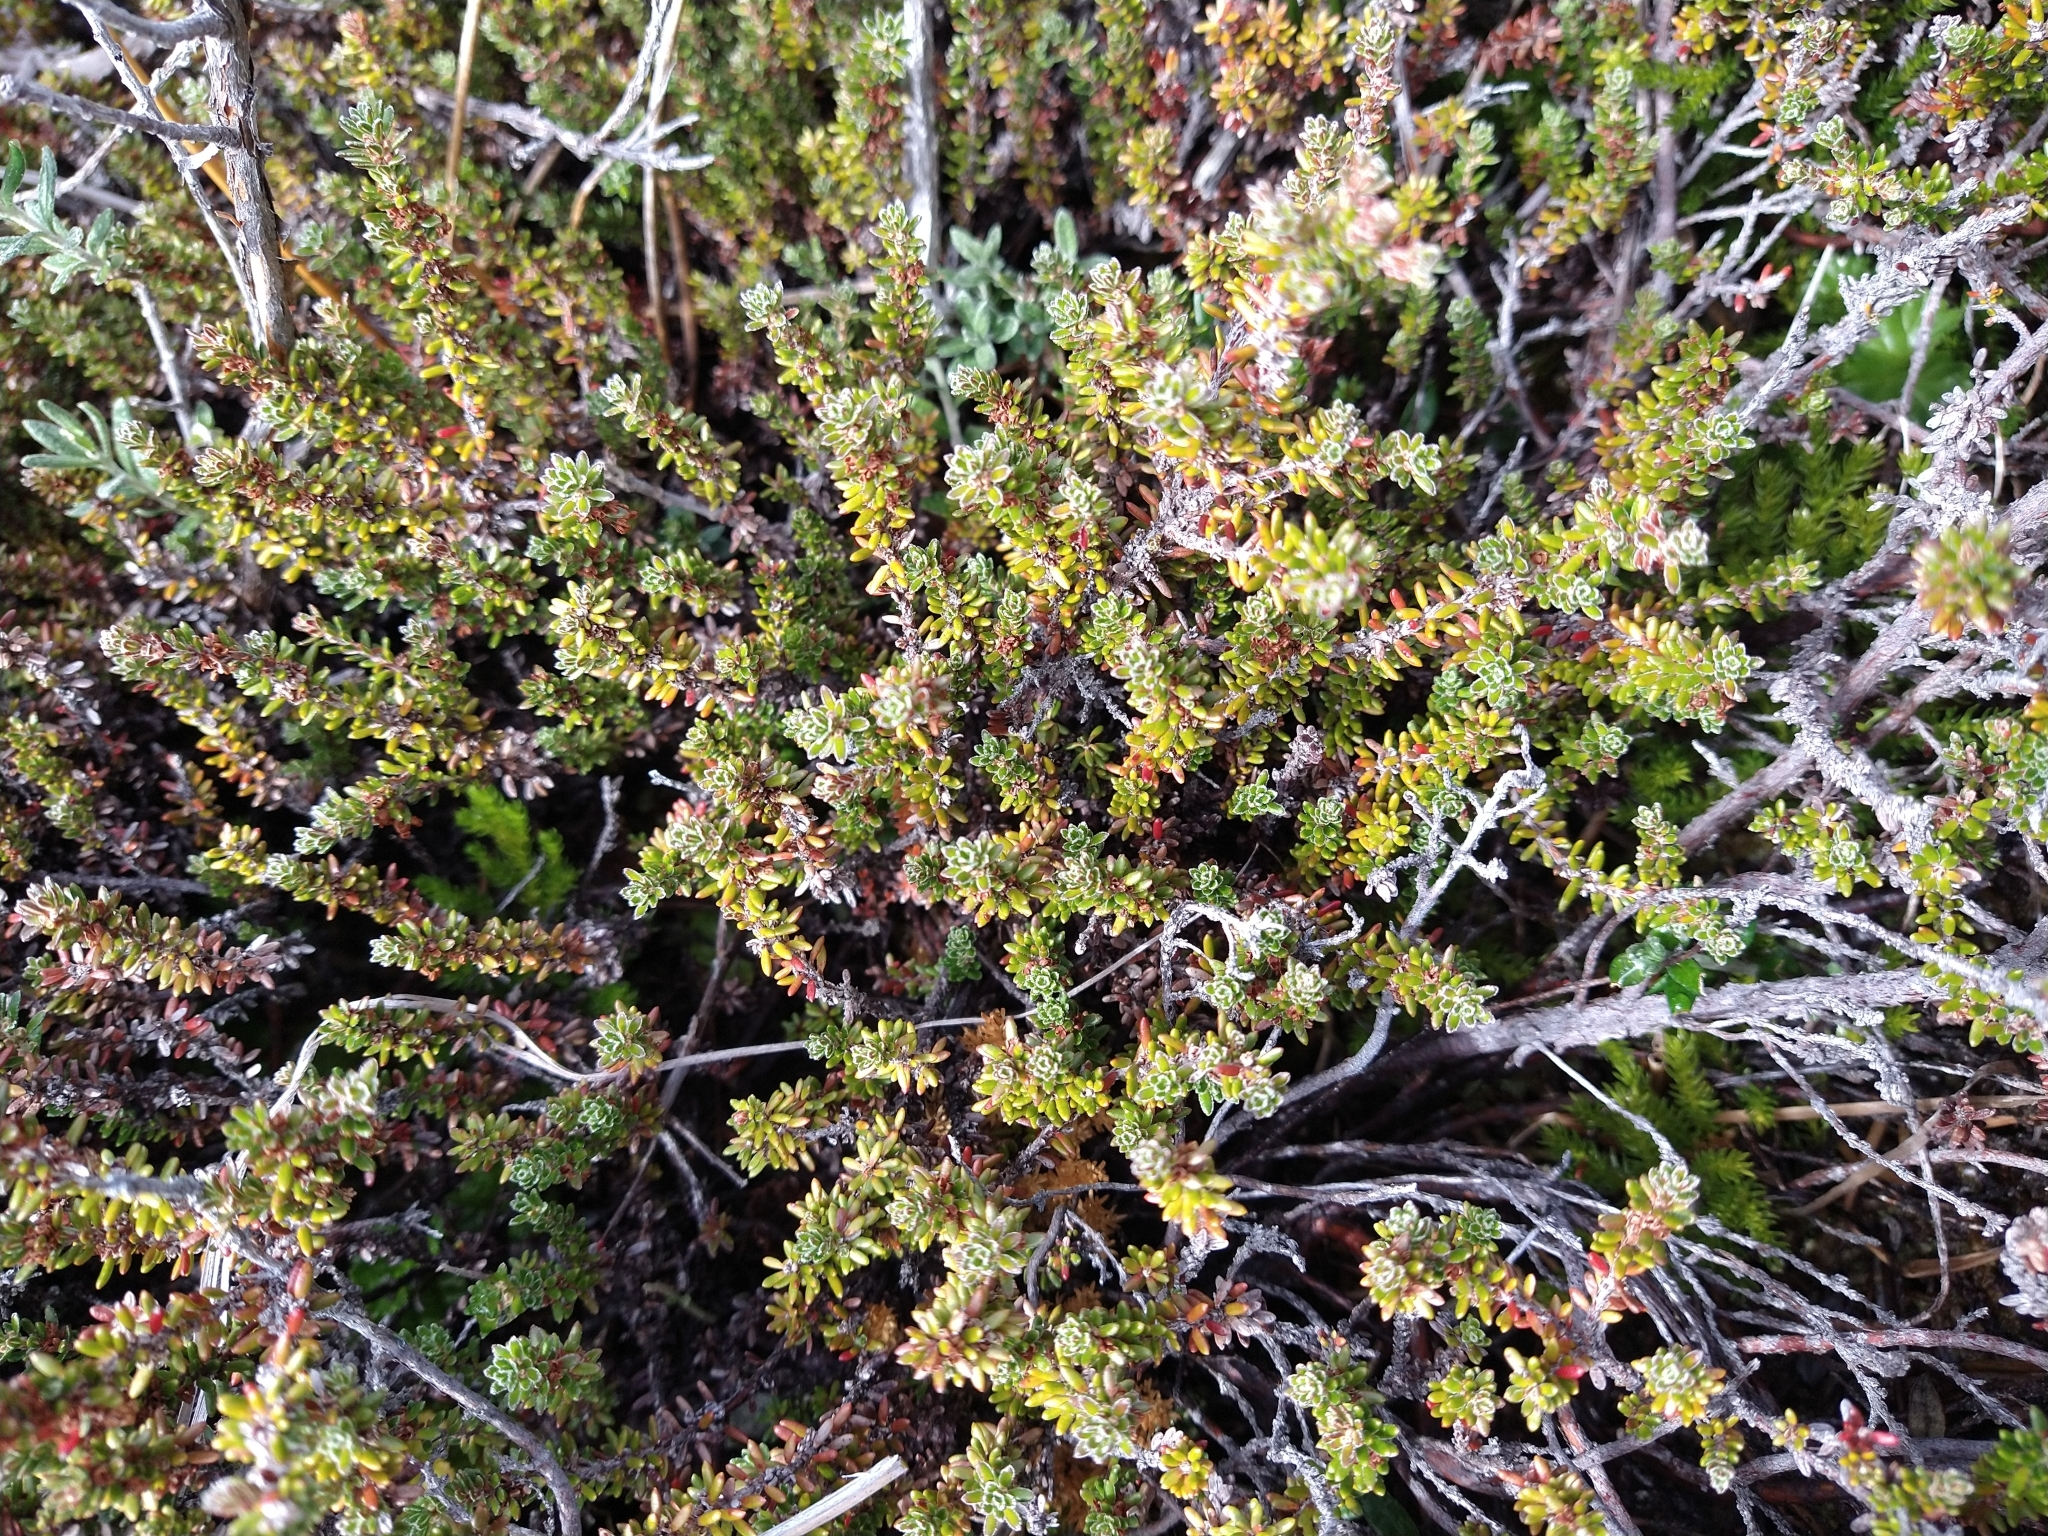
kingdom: Plantae
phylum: Tracheophyta
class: Magnoliopsida
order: Ericales
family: Ericaceae
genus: Empetrum
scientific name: Empetrum rubrum
